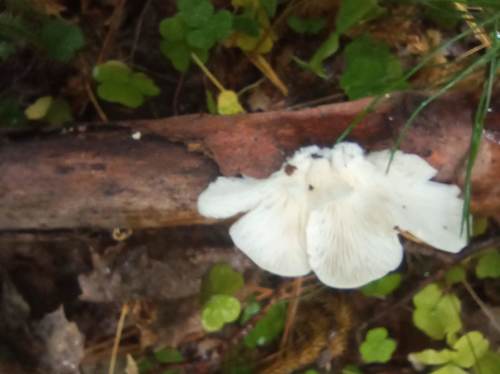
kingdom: Fungi
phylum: Basidiomycota
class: Agaricomycetes
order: Agaricales
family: Pleurotaceae
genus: Pleurotus
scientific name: Pleurotus pulmonarius
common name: Pale oyster
